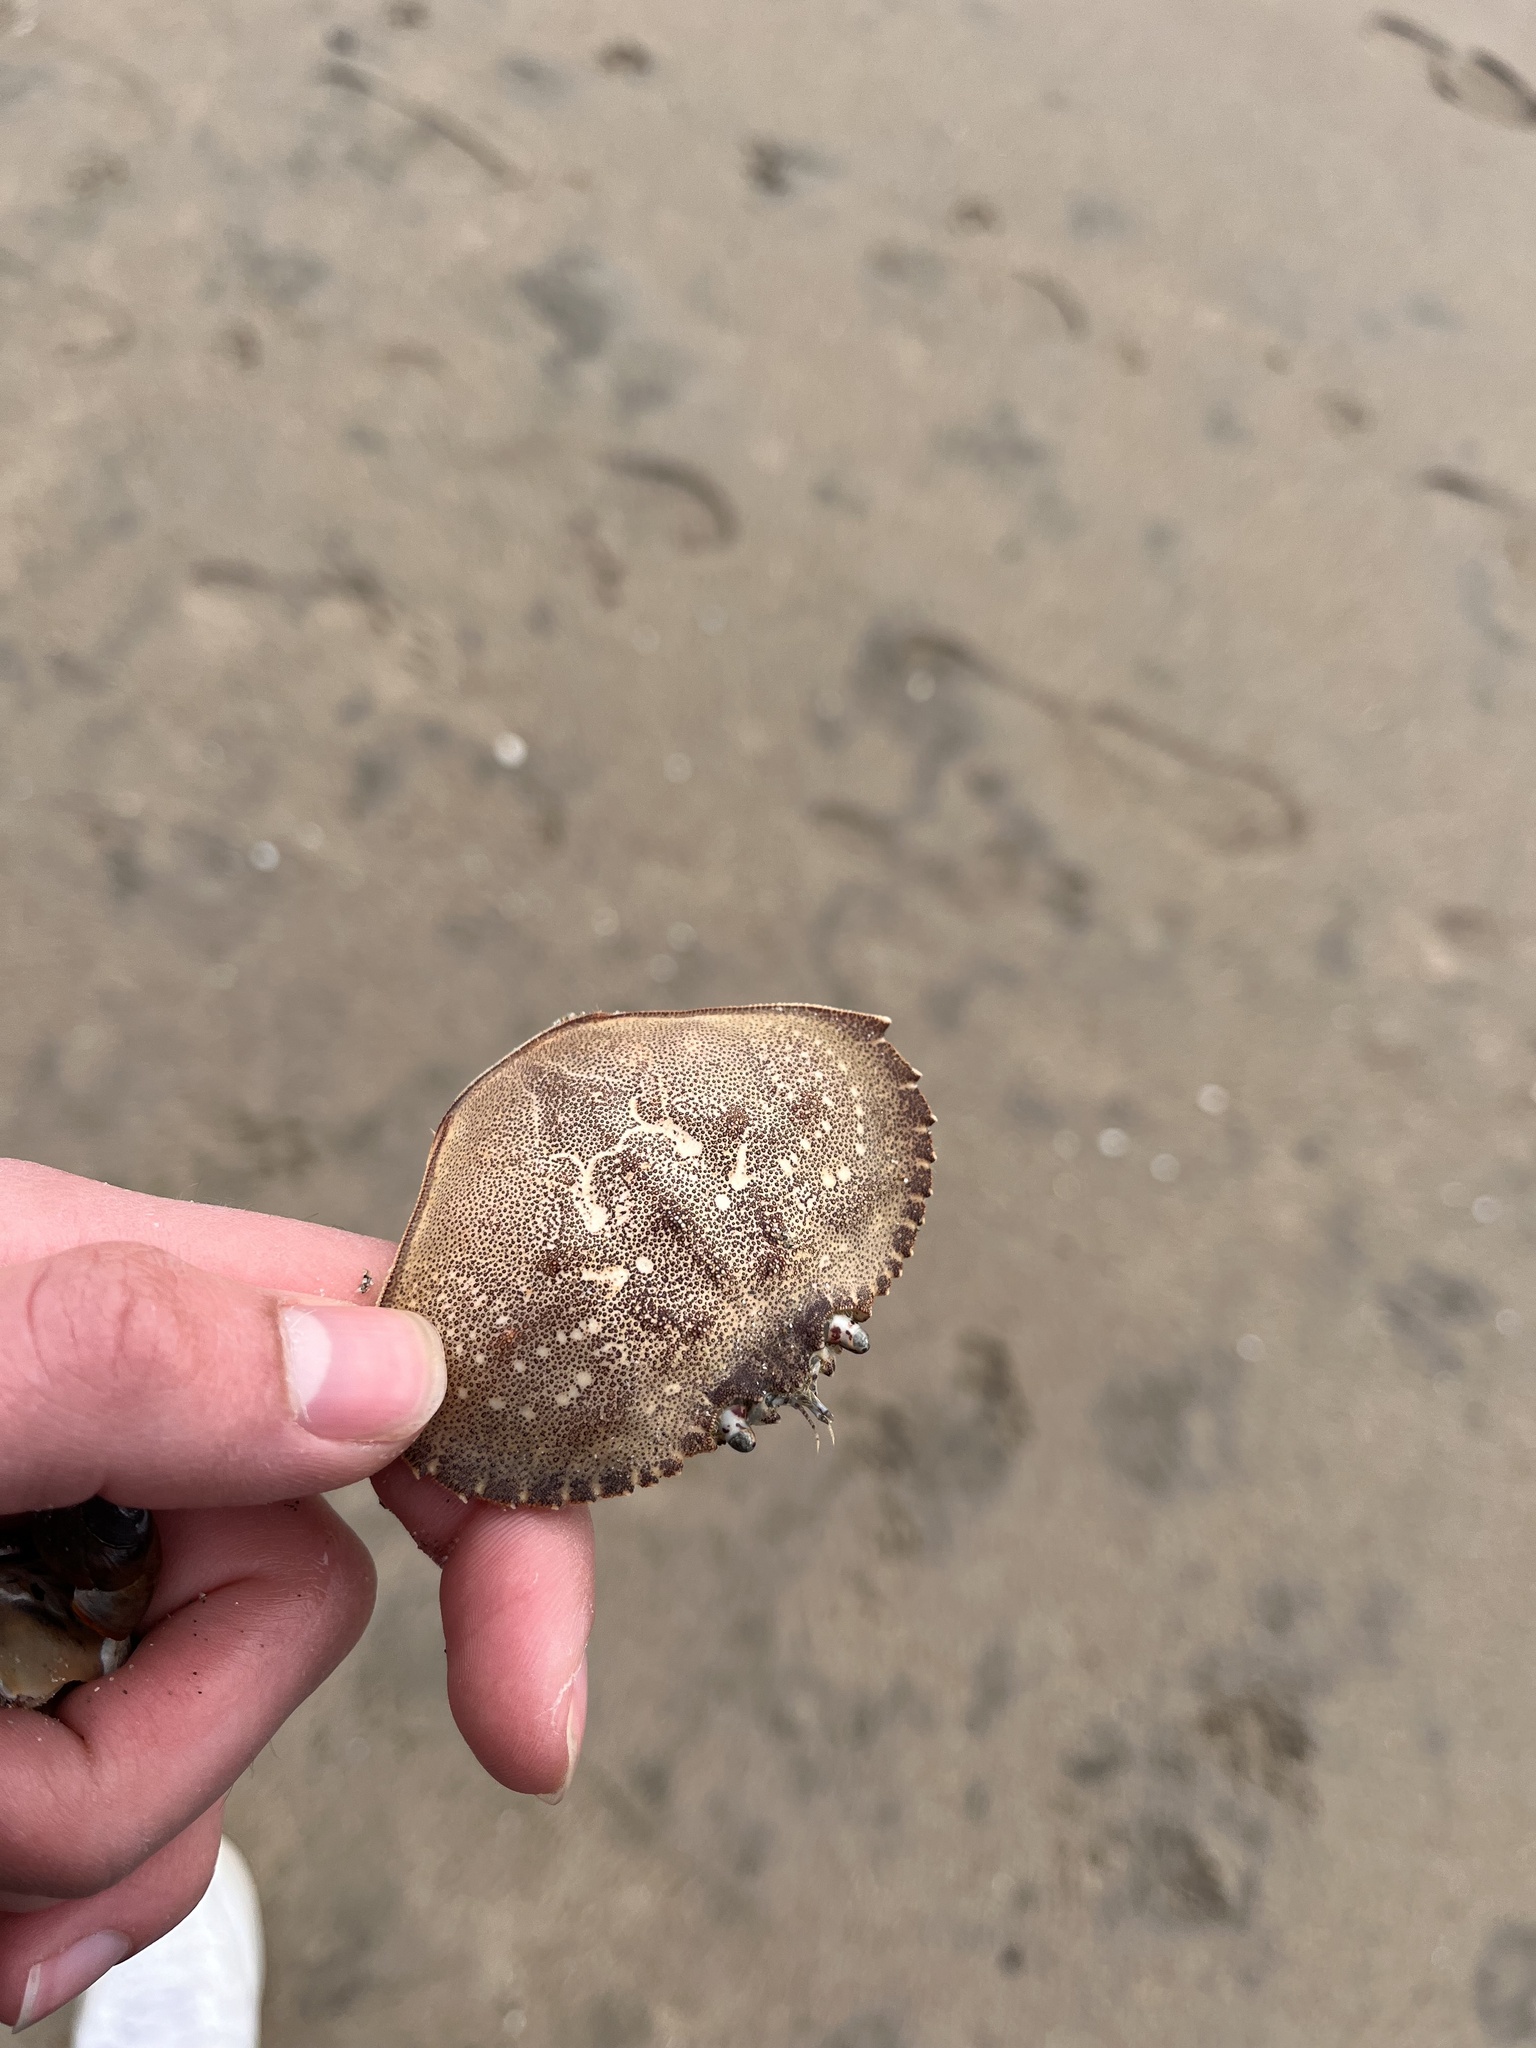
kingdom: Animalia
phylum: Arthropoda
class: Malacostraca
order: Decapoda
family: Cancridae
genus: Metacarcinus
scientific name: Metacarcinus magister
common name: Californian crab
